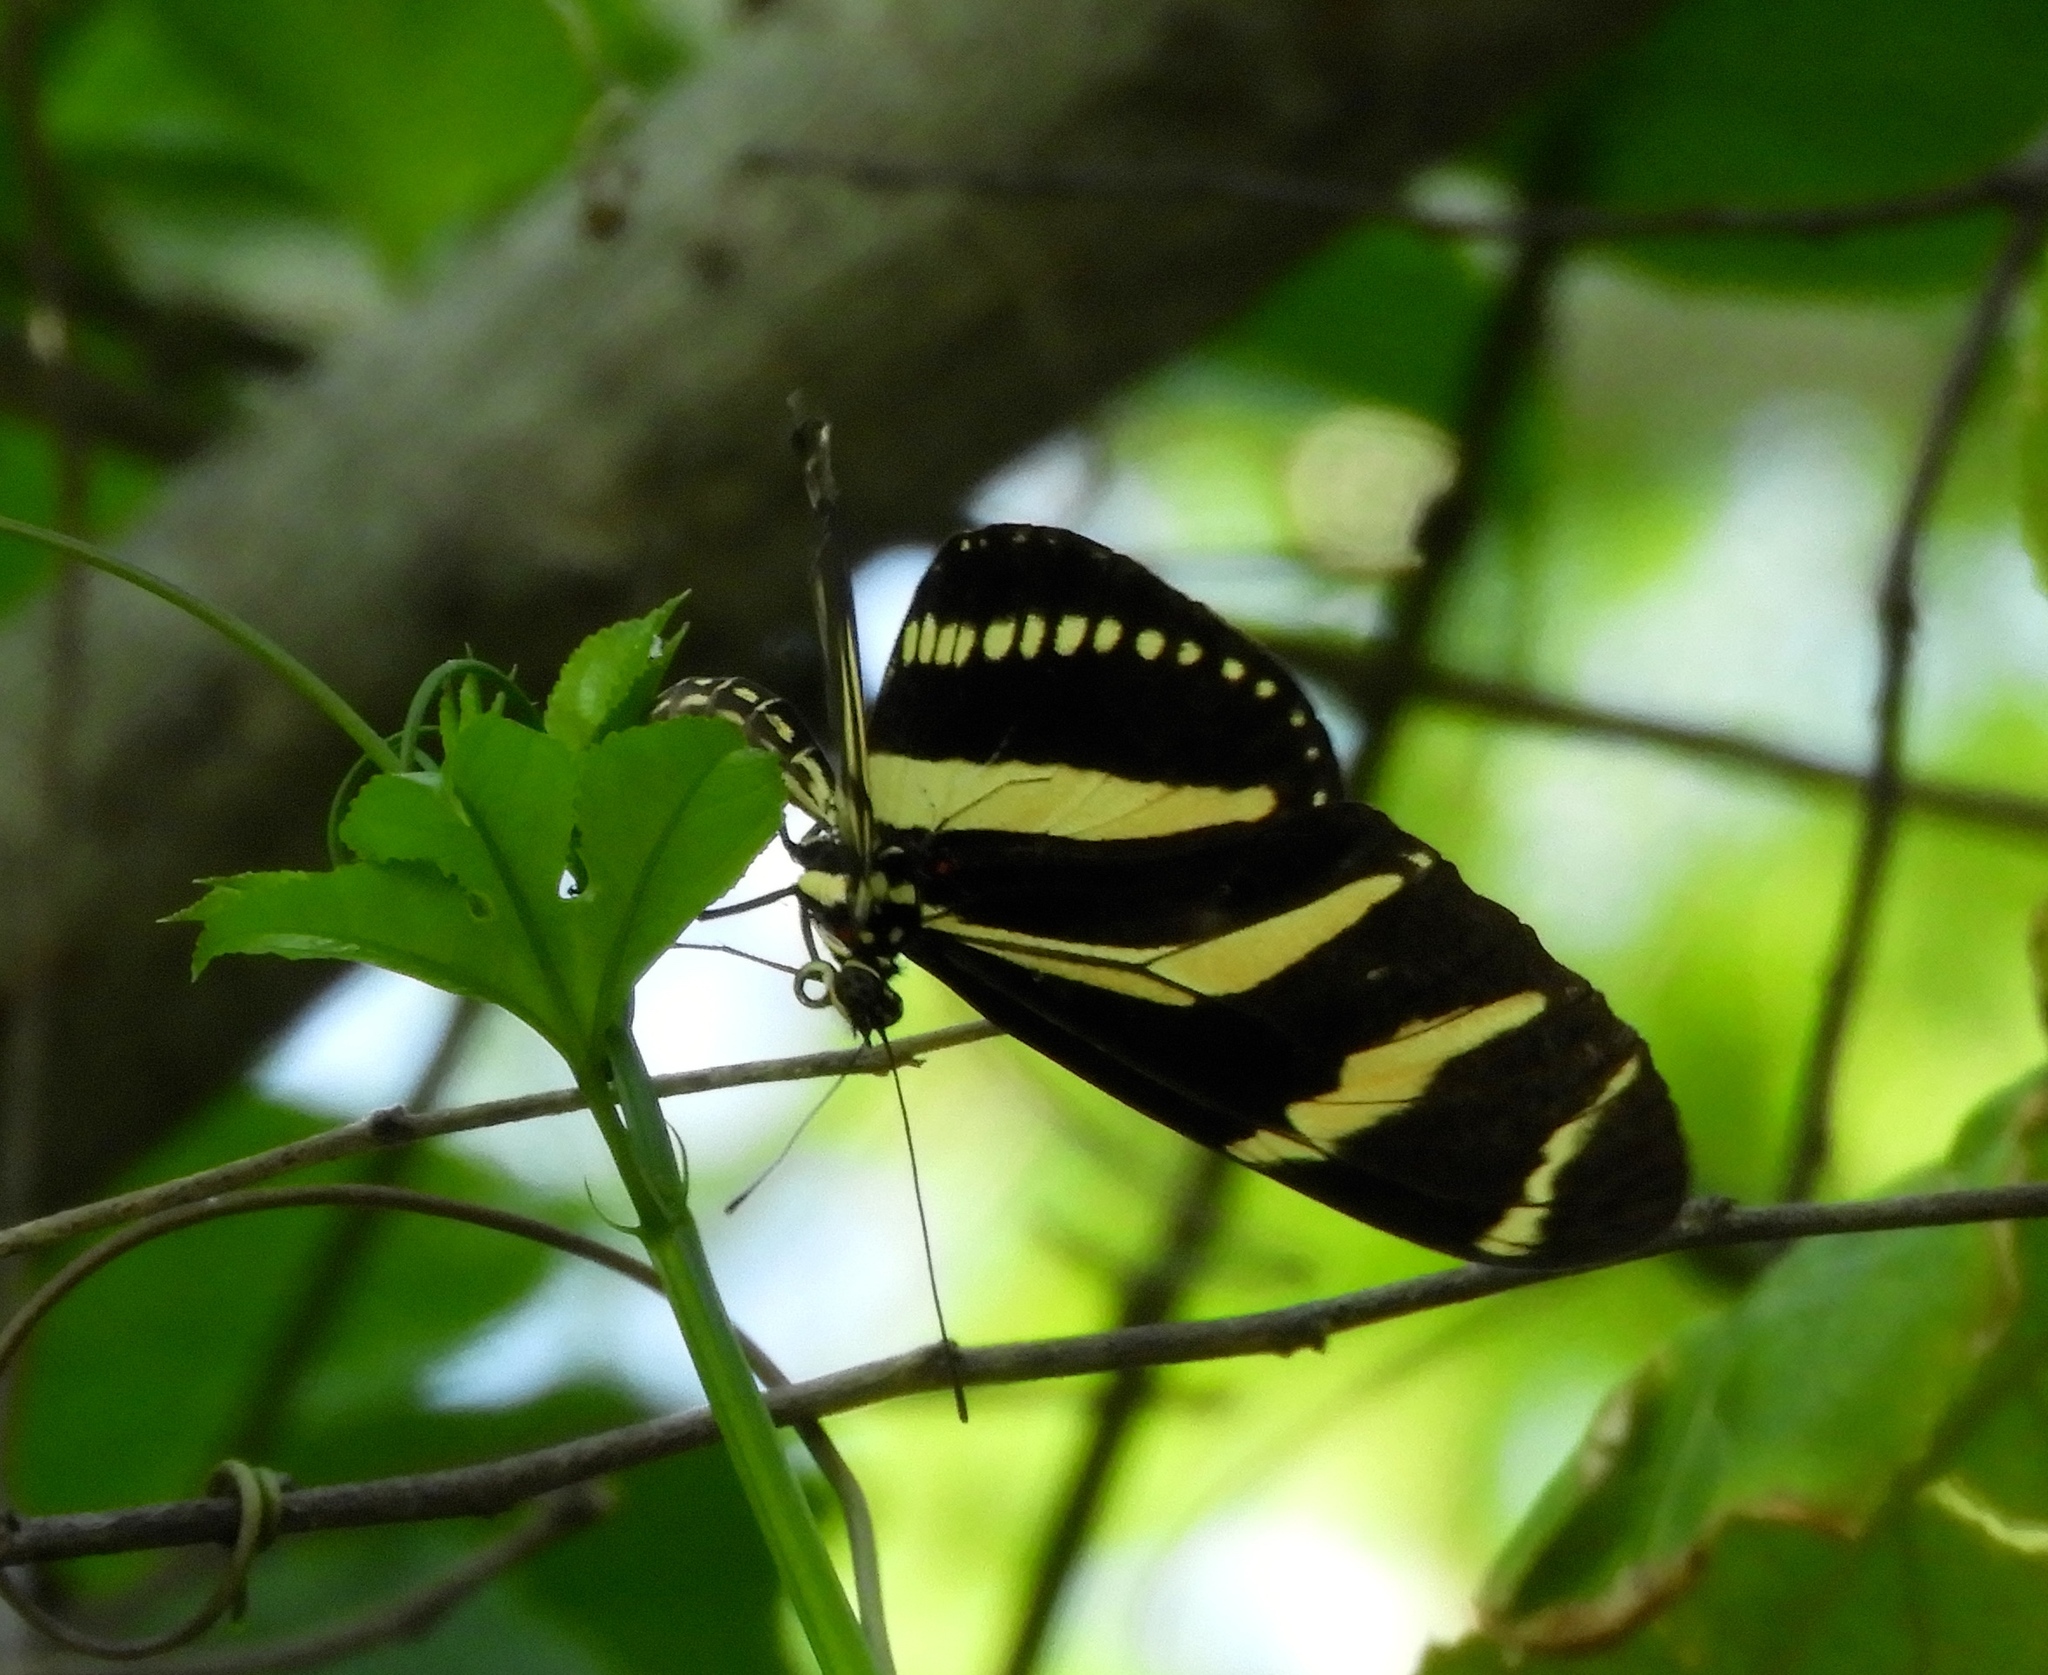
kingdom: Animalia
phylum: Arthropoda
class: Insecta
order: Lepidoptera
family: Nymphalidae
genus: Heliconius
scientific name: Heliconius charithonia
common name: Zebra long wing
